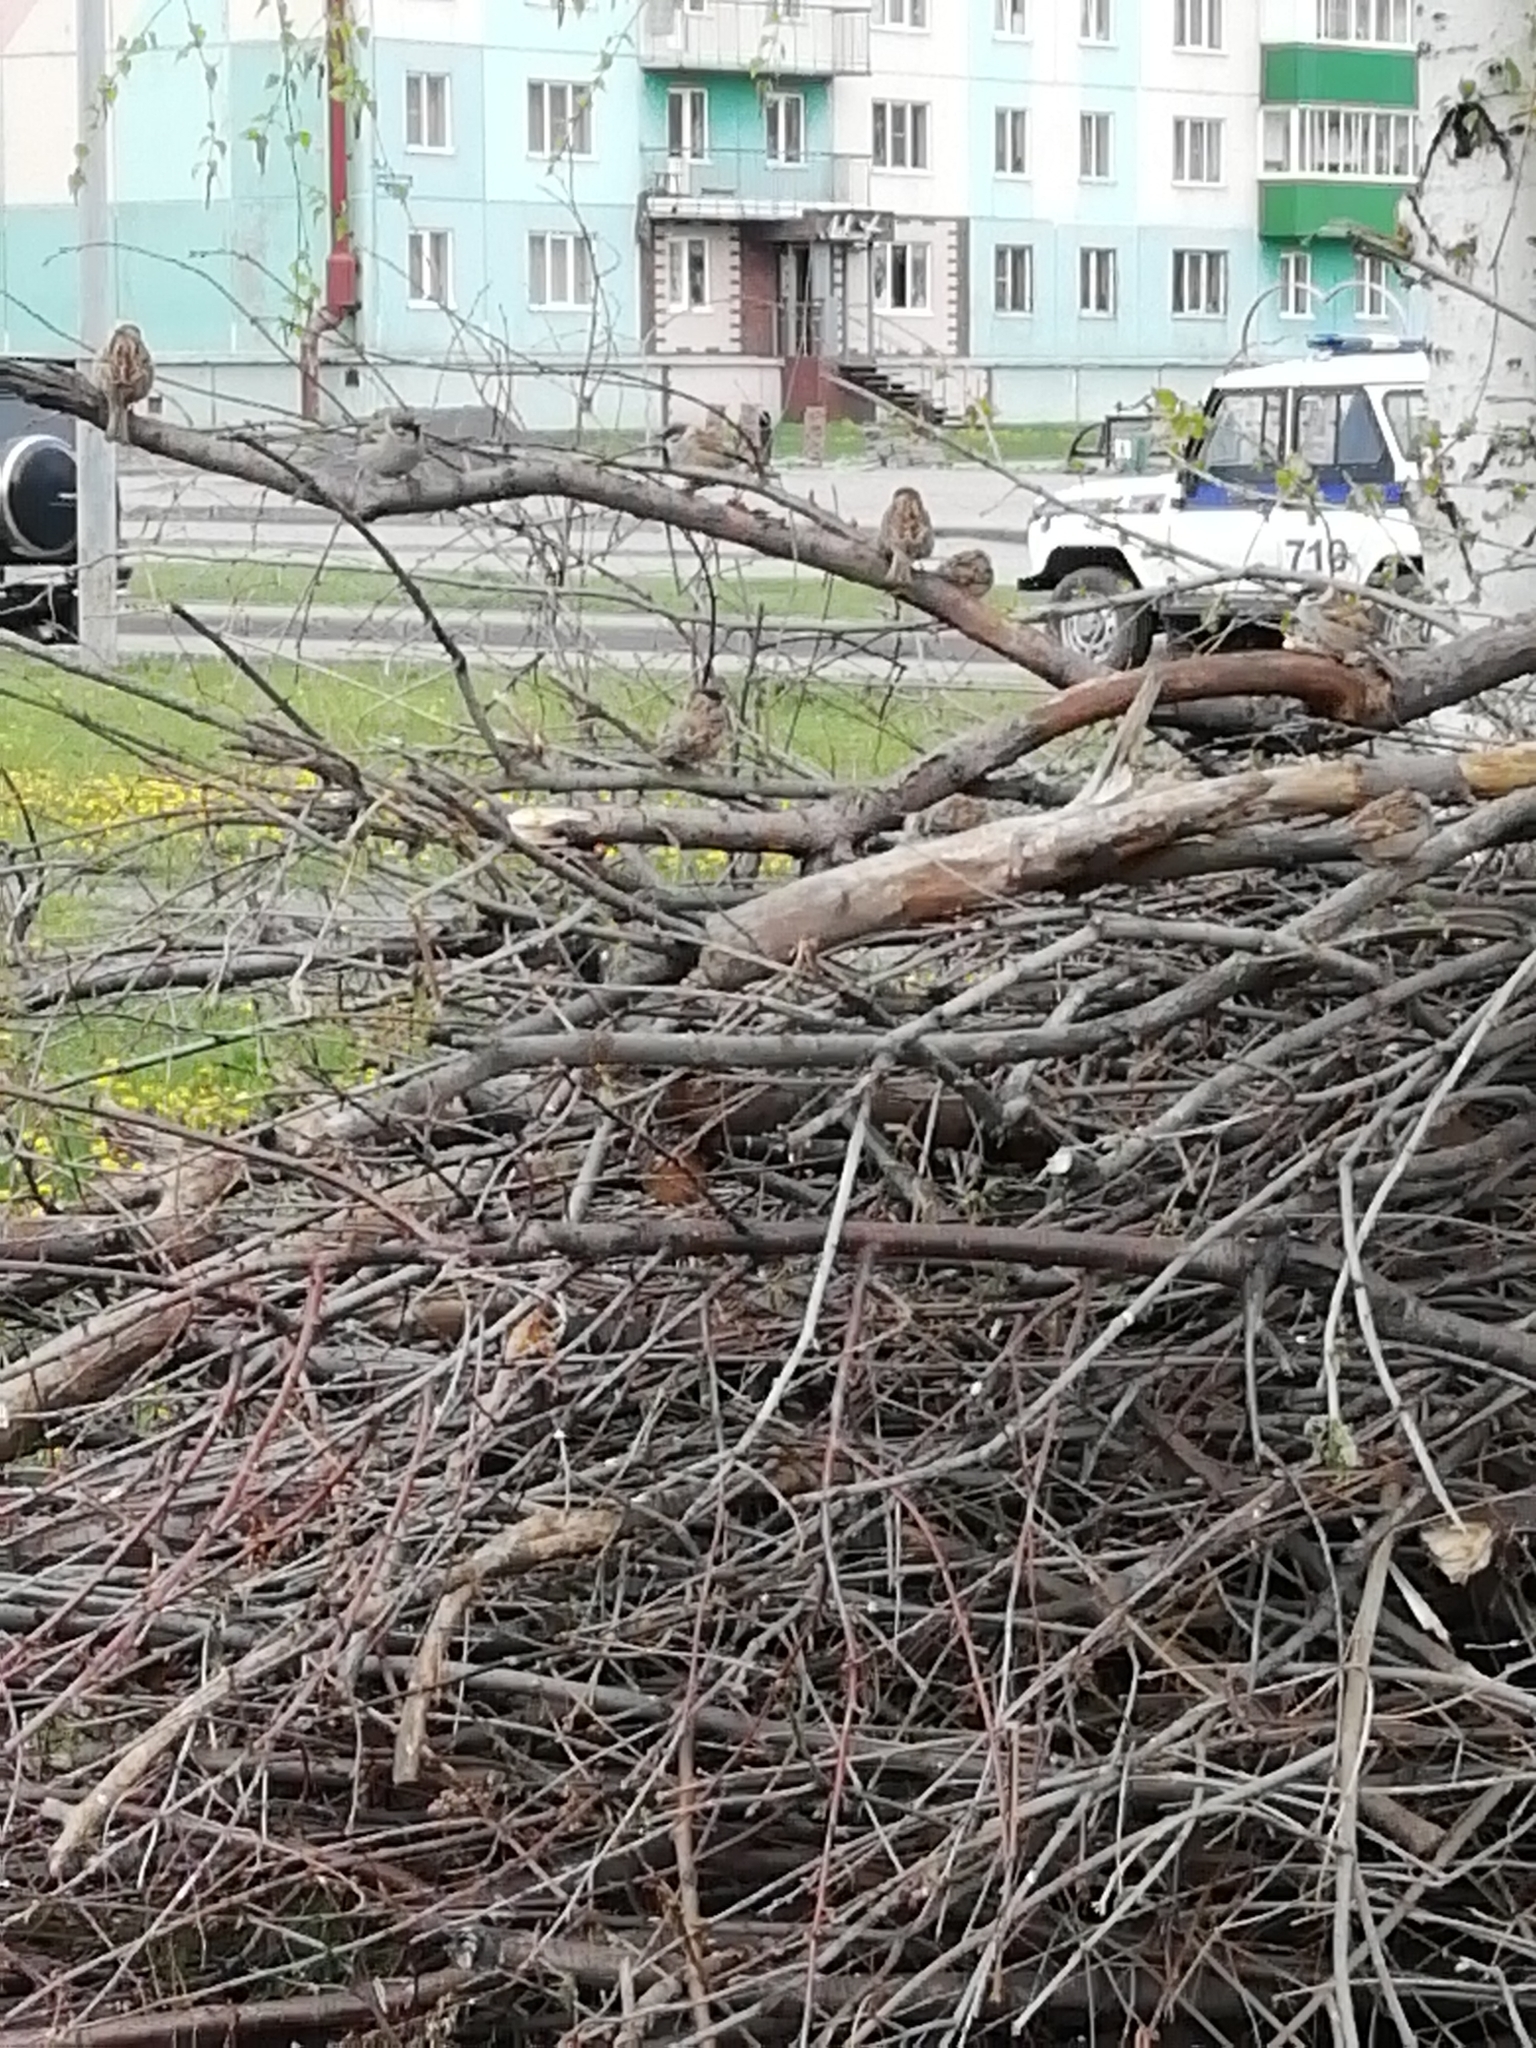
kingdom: Animalia
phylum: Chordata
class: Aves
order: Passeriformes
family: Passeridae
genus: Passer
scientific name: Passer montanus
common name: Eurasian tree sparrow
